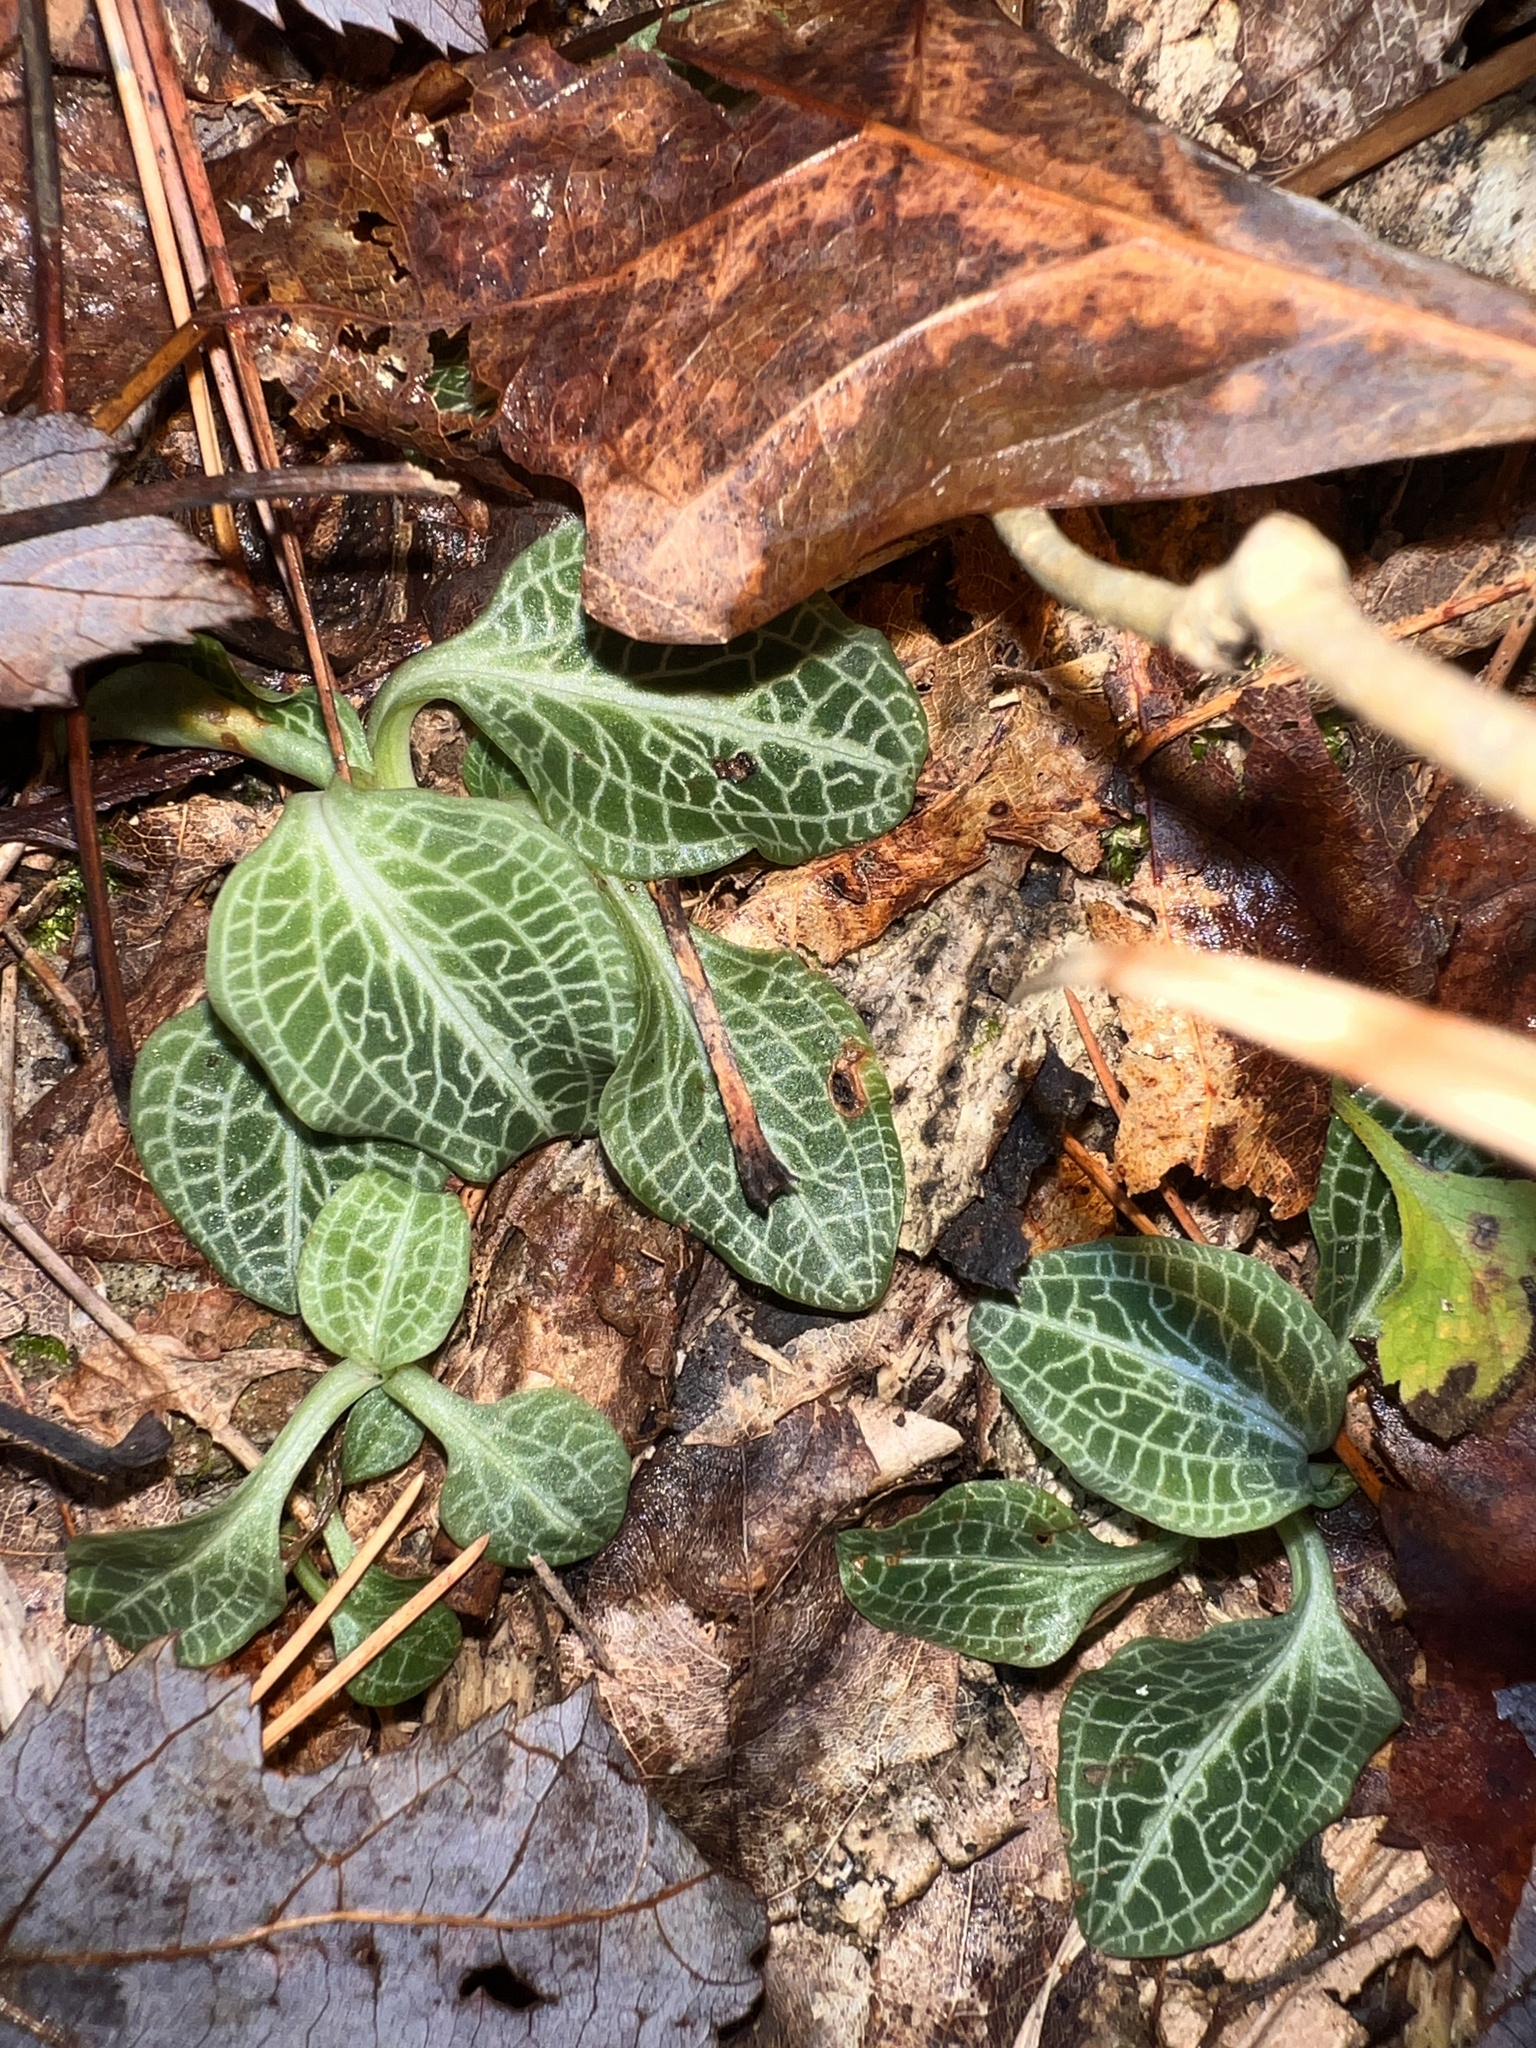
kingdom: Plantae
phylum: Tracheophyta
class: Liliopsida
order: Asparagales
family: Orchidaceae
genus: Goodyera
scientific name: Goodyera pubescens
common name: Downy rattlesnake-plantain
